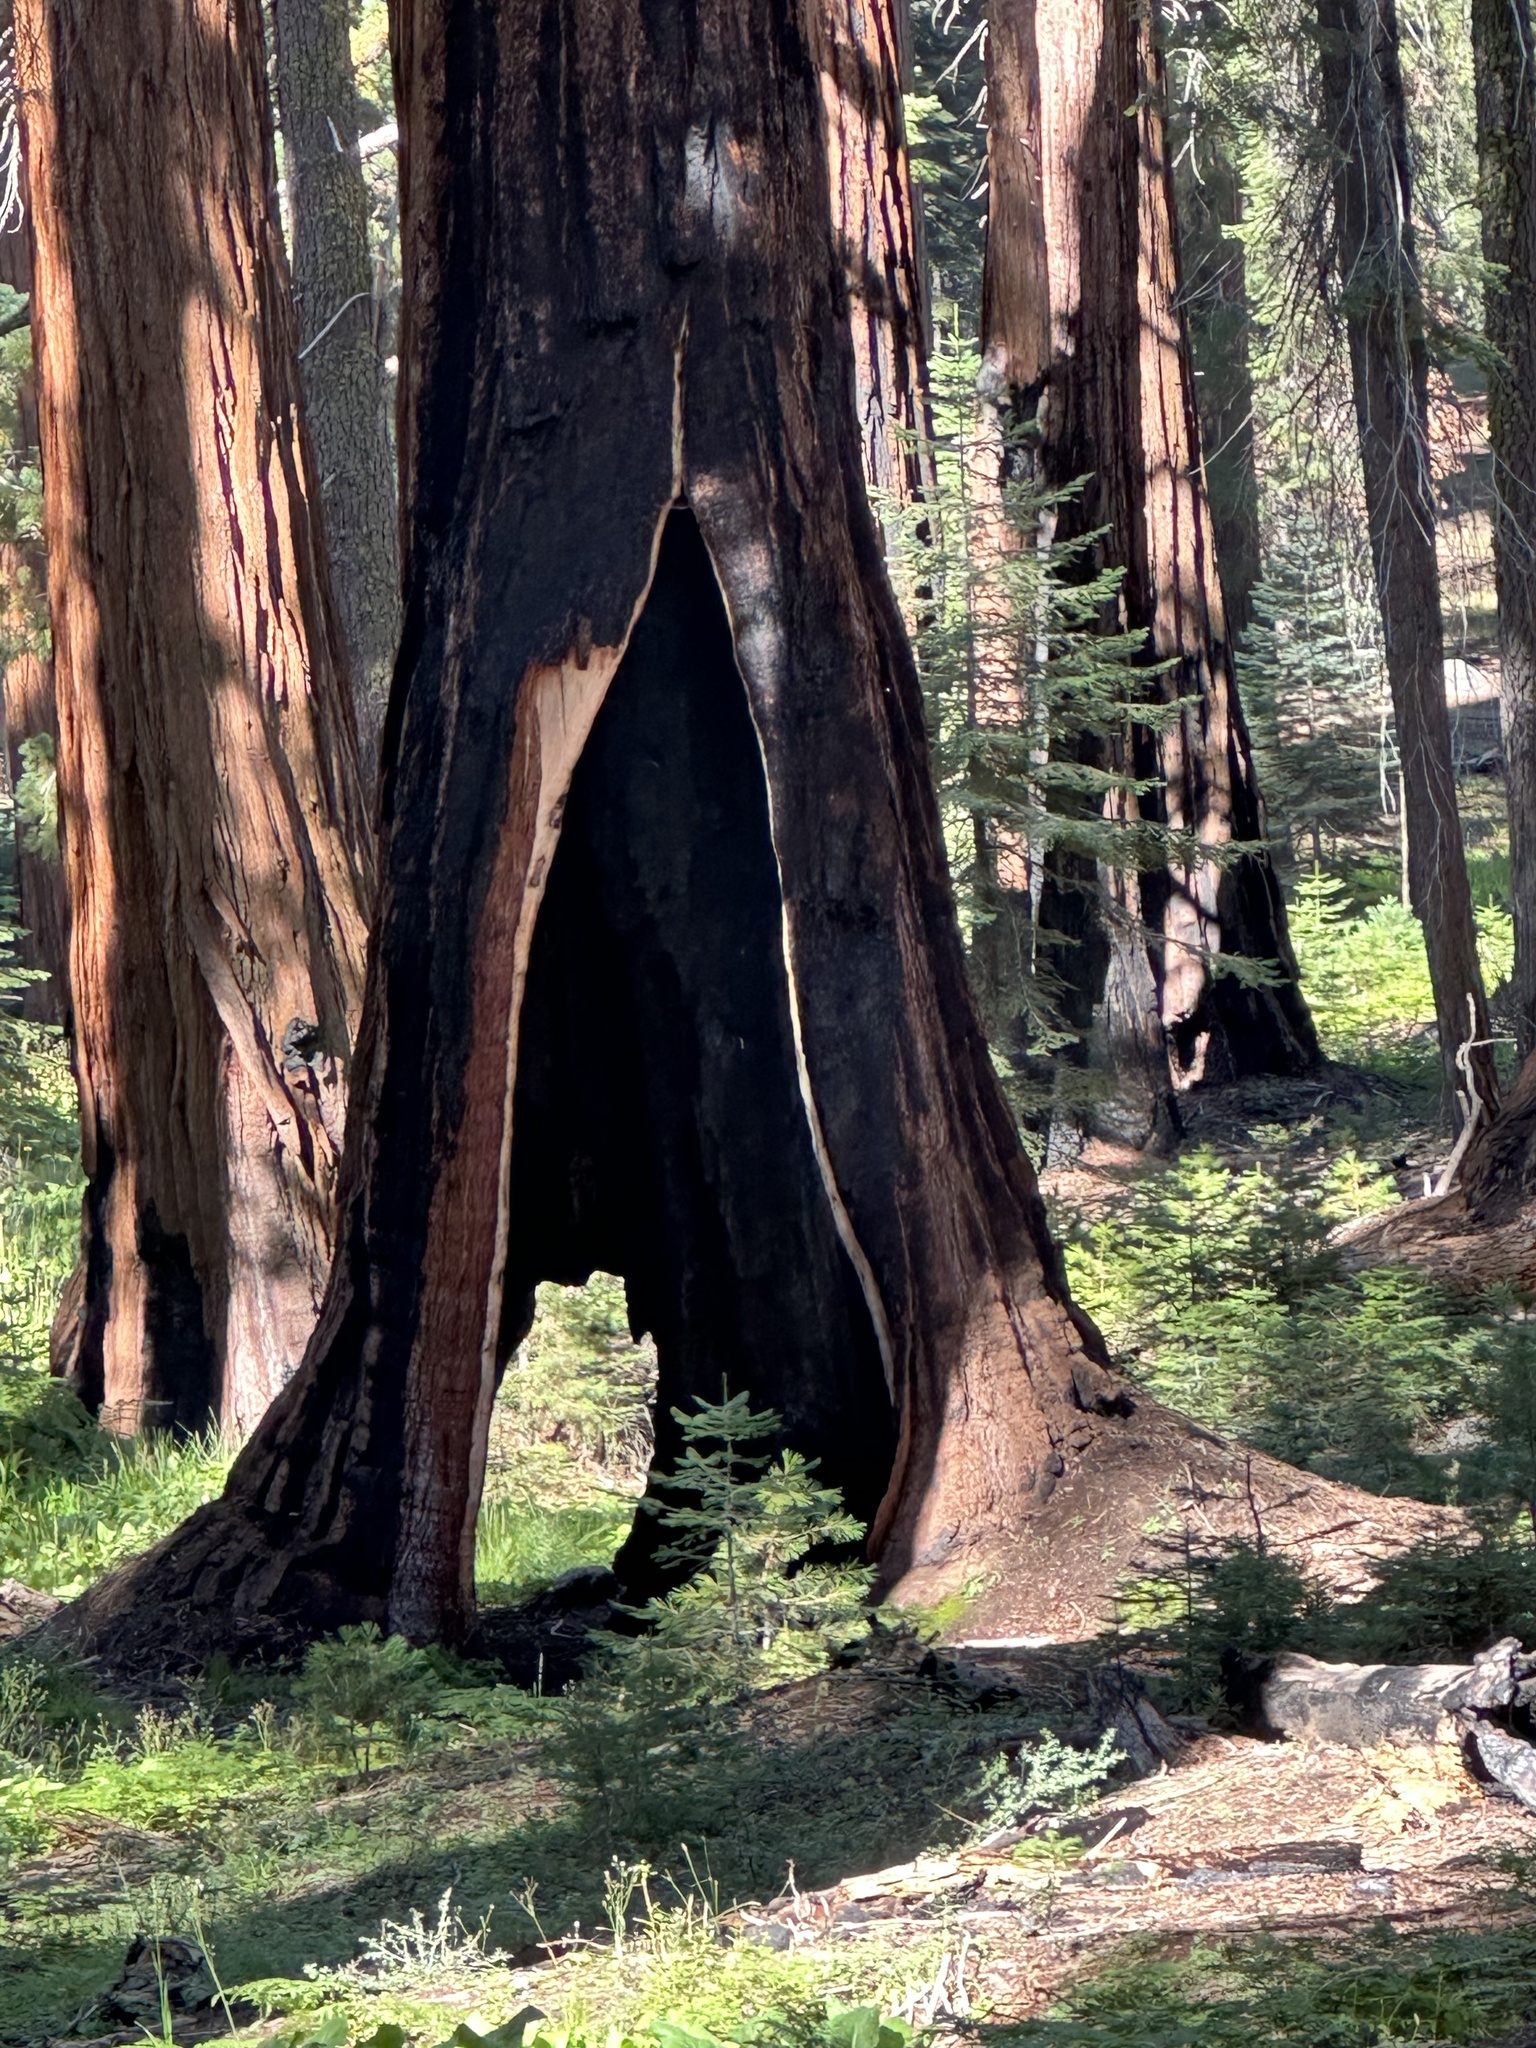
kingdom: Plantae
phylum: Tracheophyta
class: Pinopsida
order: Pinales
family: Cupressaceae
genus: Sequoiadendron
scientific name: Sequoiadendron giganteum
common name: Wellingtonia
